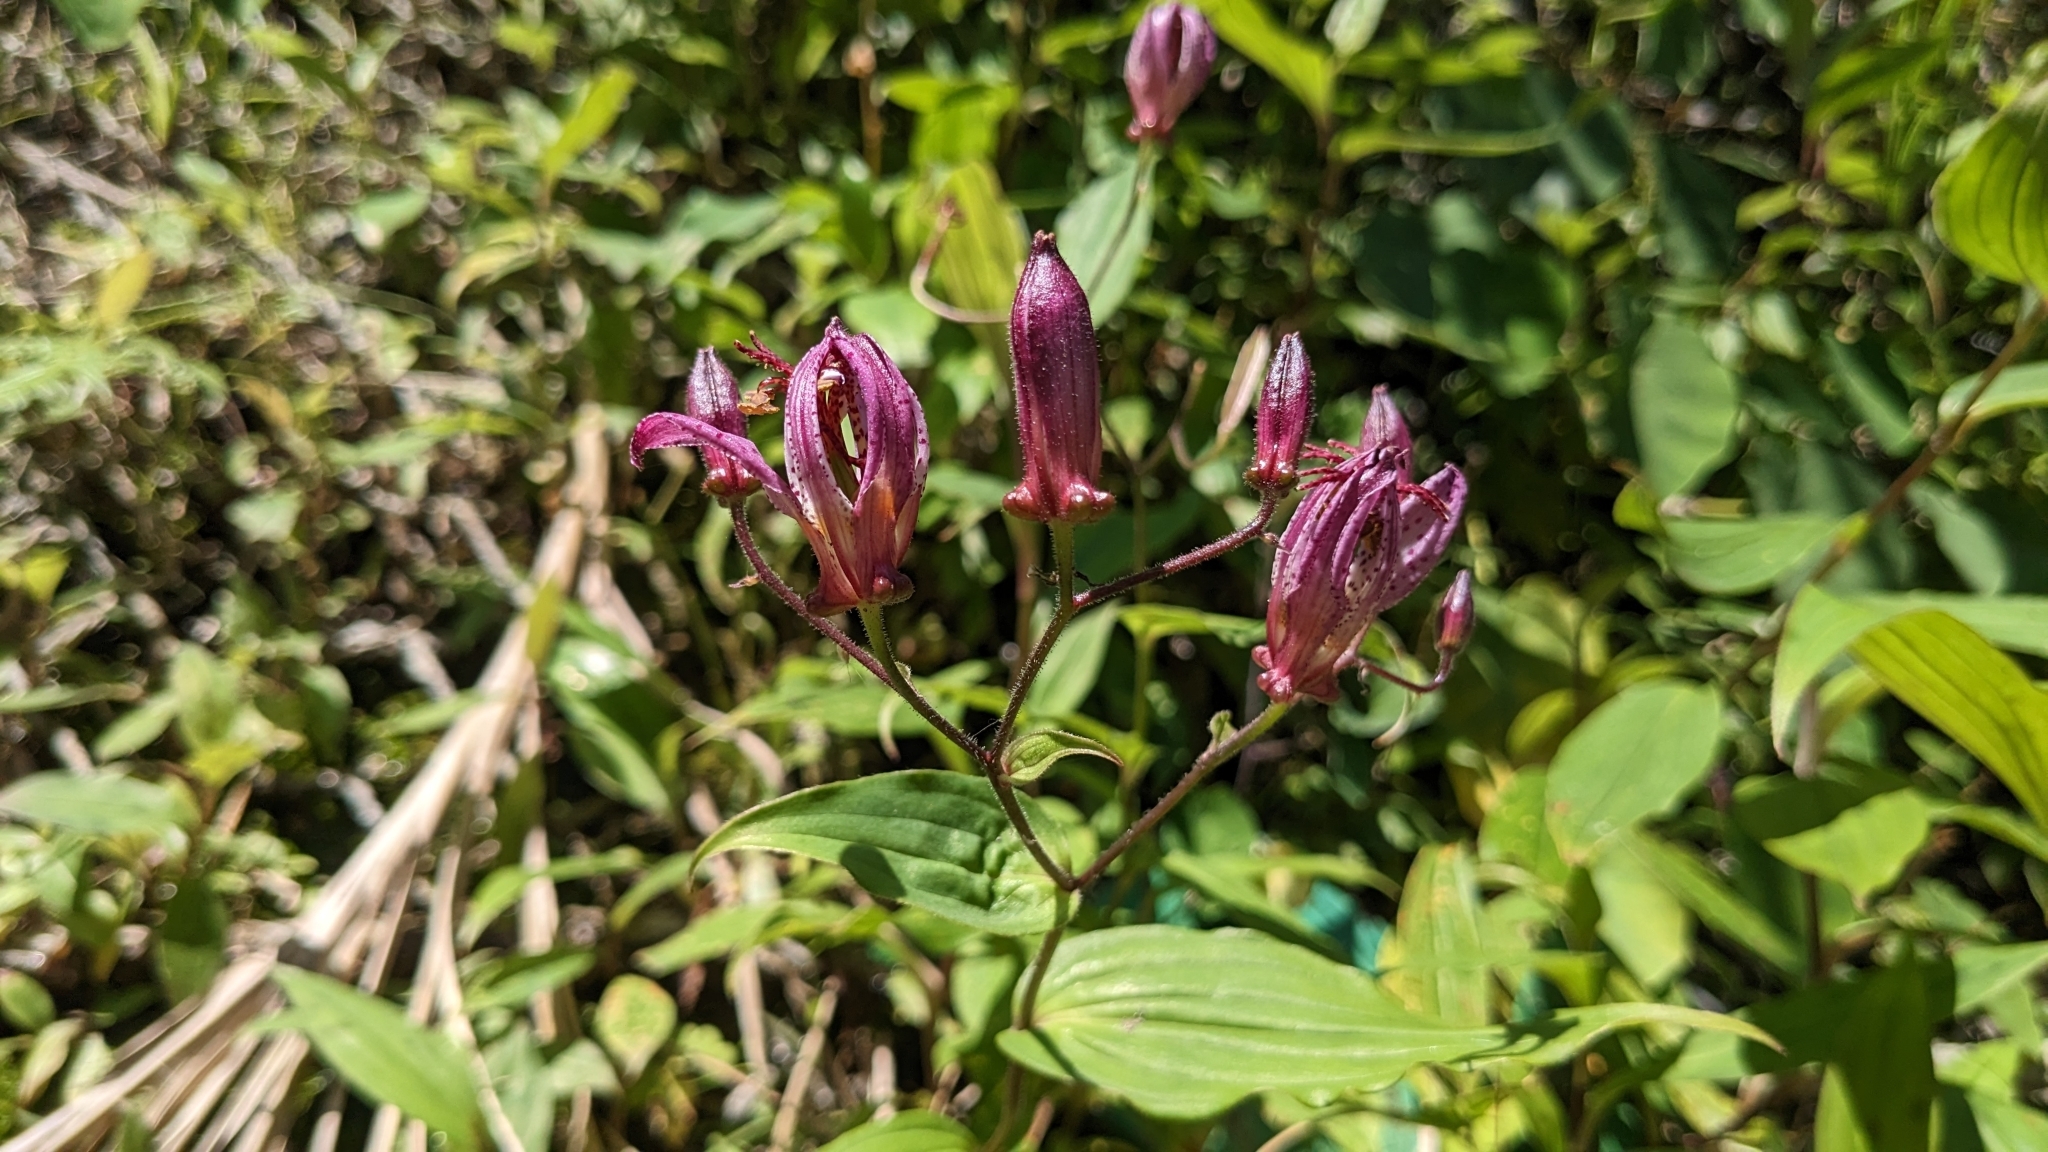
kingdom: Plantae
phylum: Tracheophyta
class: Liliopsida
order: Liliales
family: Liliaceae
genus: Tricyrtis
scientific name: Tricyrtis formosana
